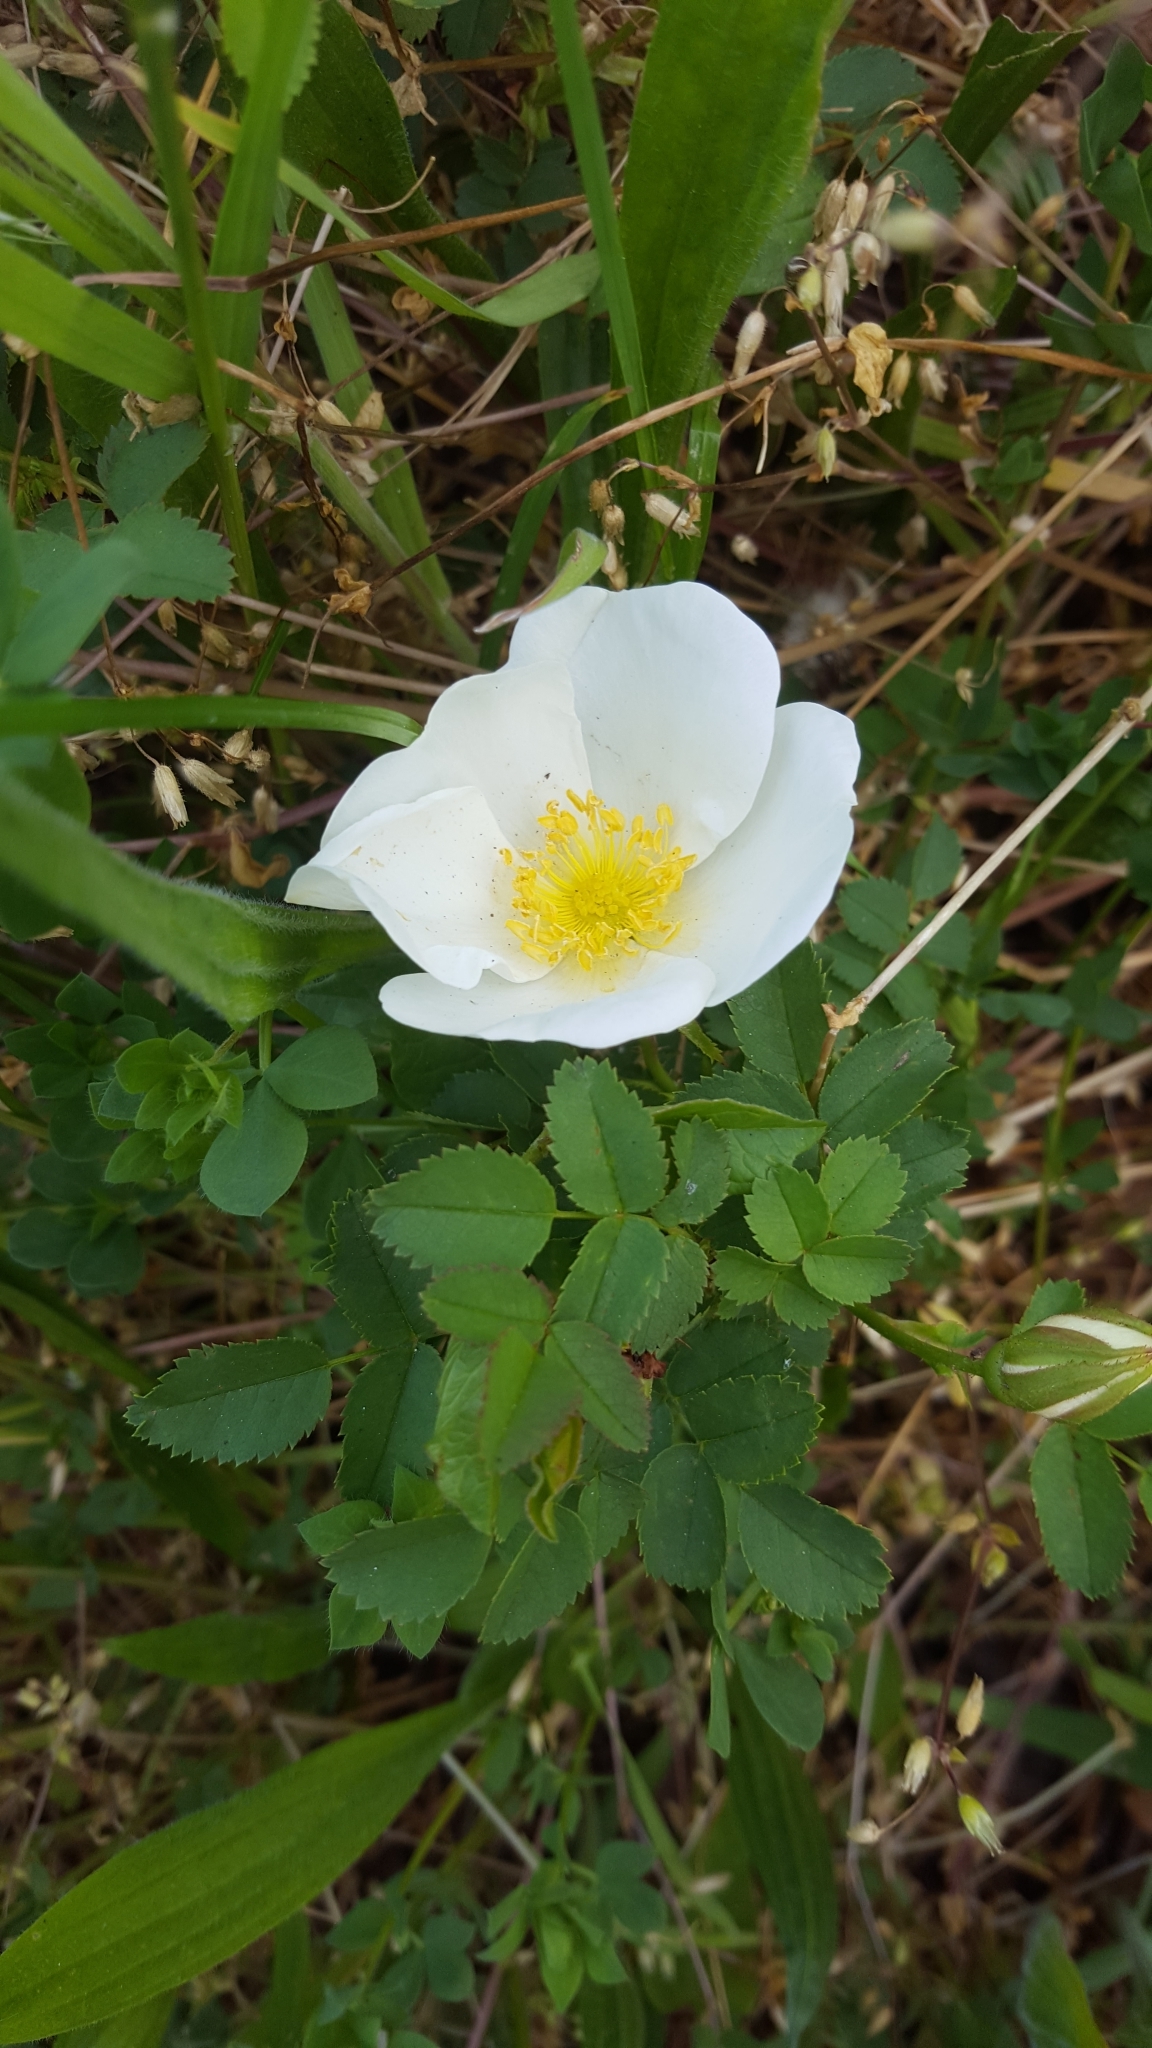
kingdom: Plantae
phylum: Tracheophyta
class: Magnoliopsida
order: Rosales
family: Rosaceae
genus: Rosa
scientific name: Rosa spinosissima
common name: Burnet rose
